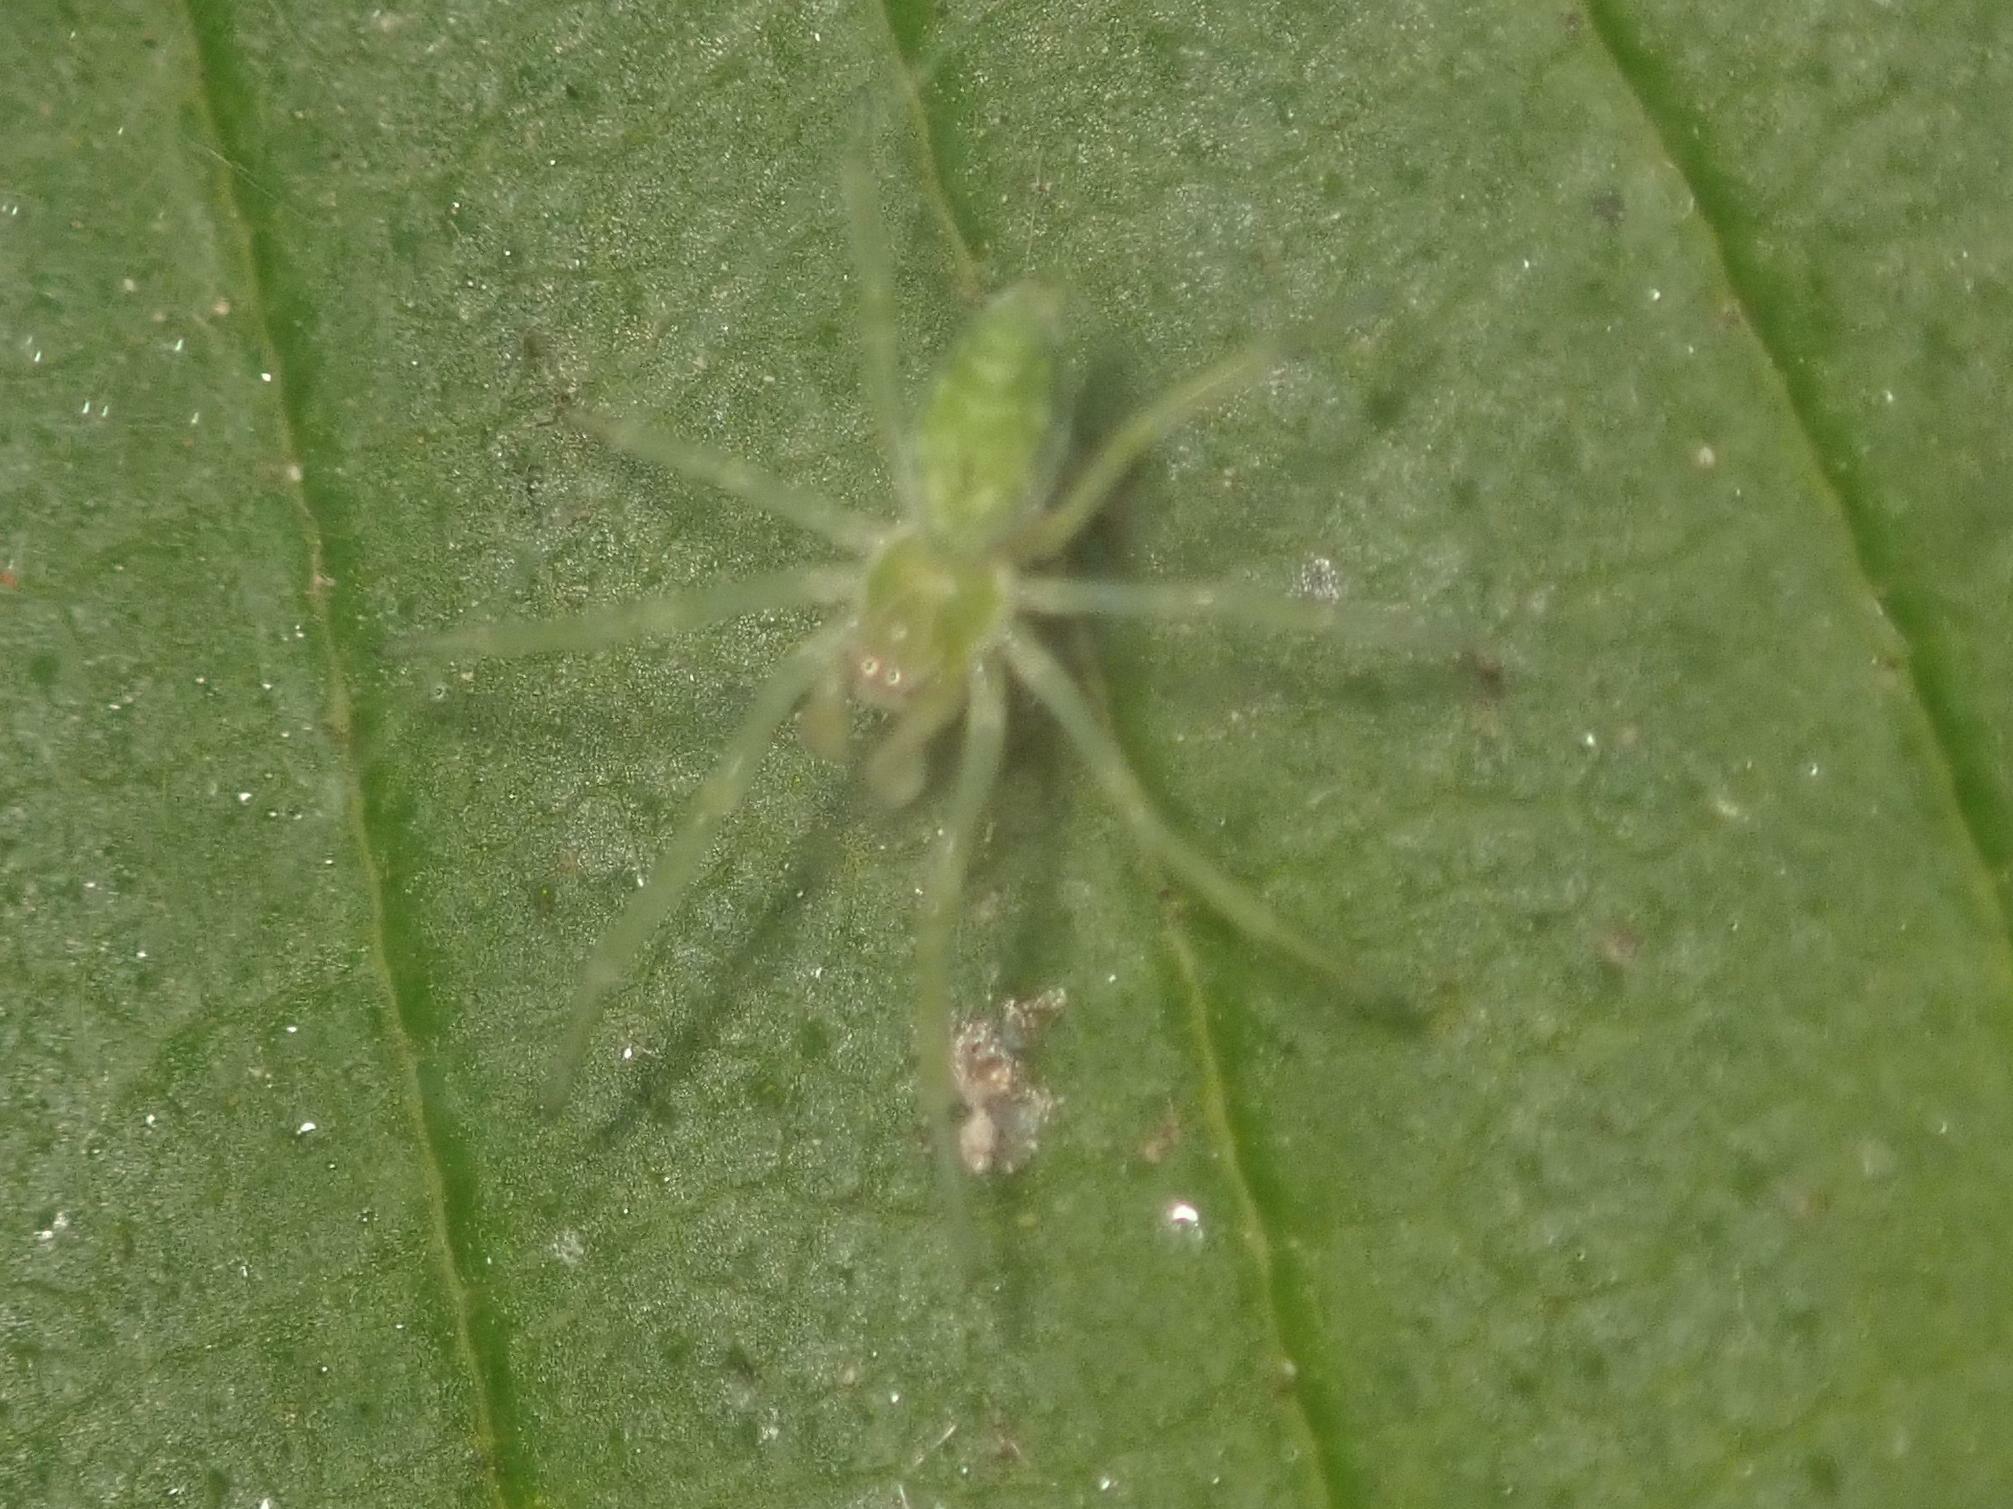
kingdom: Animalia
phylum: Arthropoda
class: Arachnida
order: Araneae
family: Dictynidae
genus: Nigma
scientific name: Nigma walckenaeri
